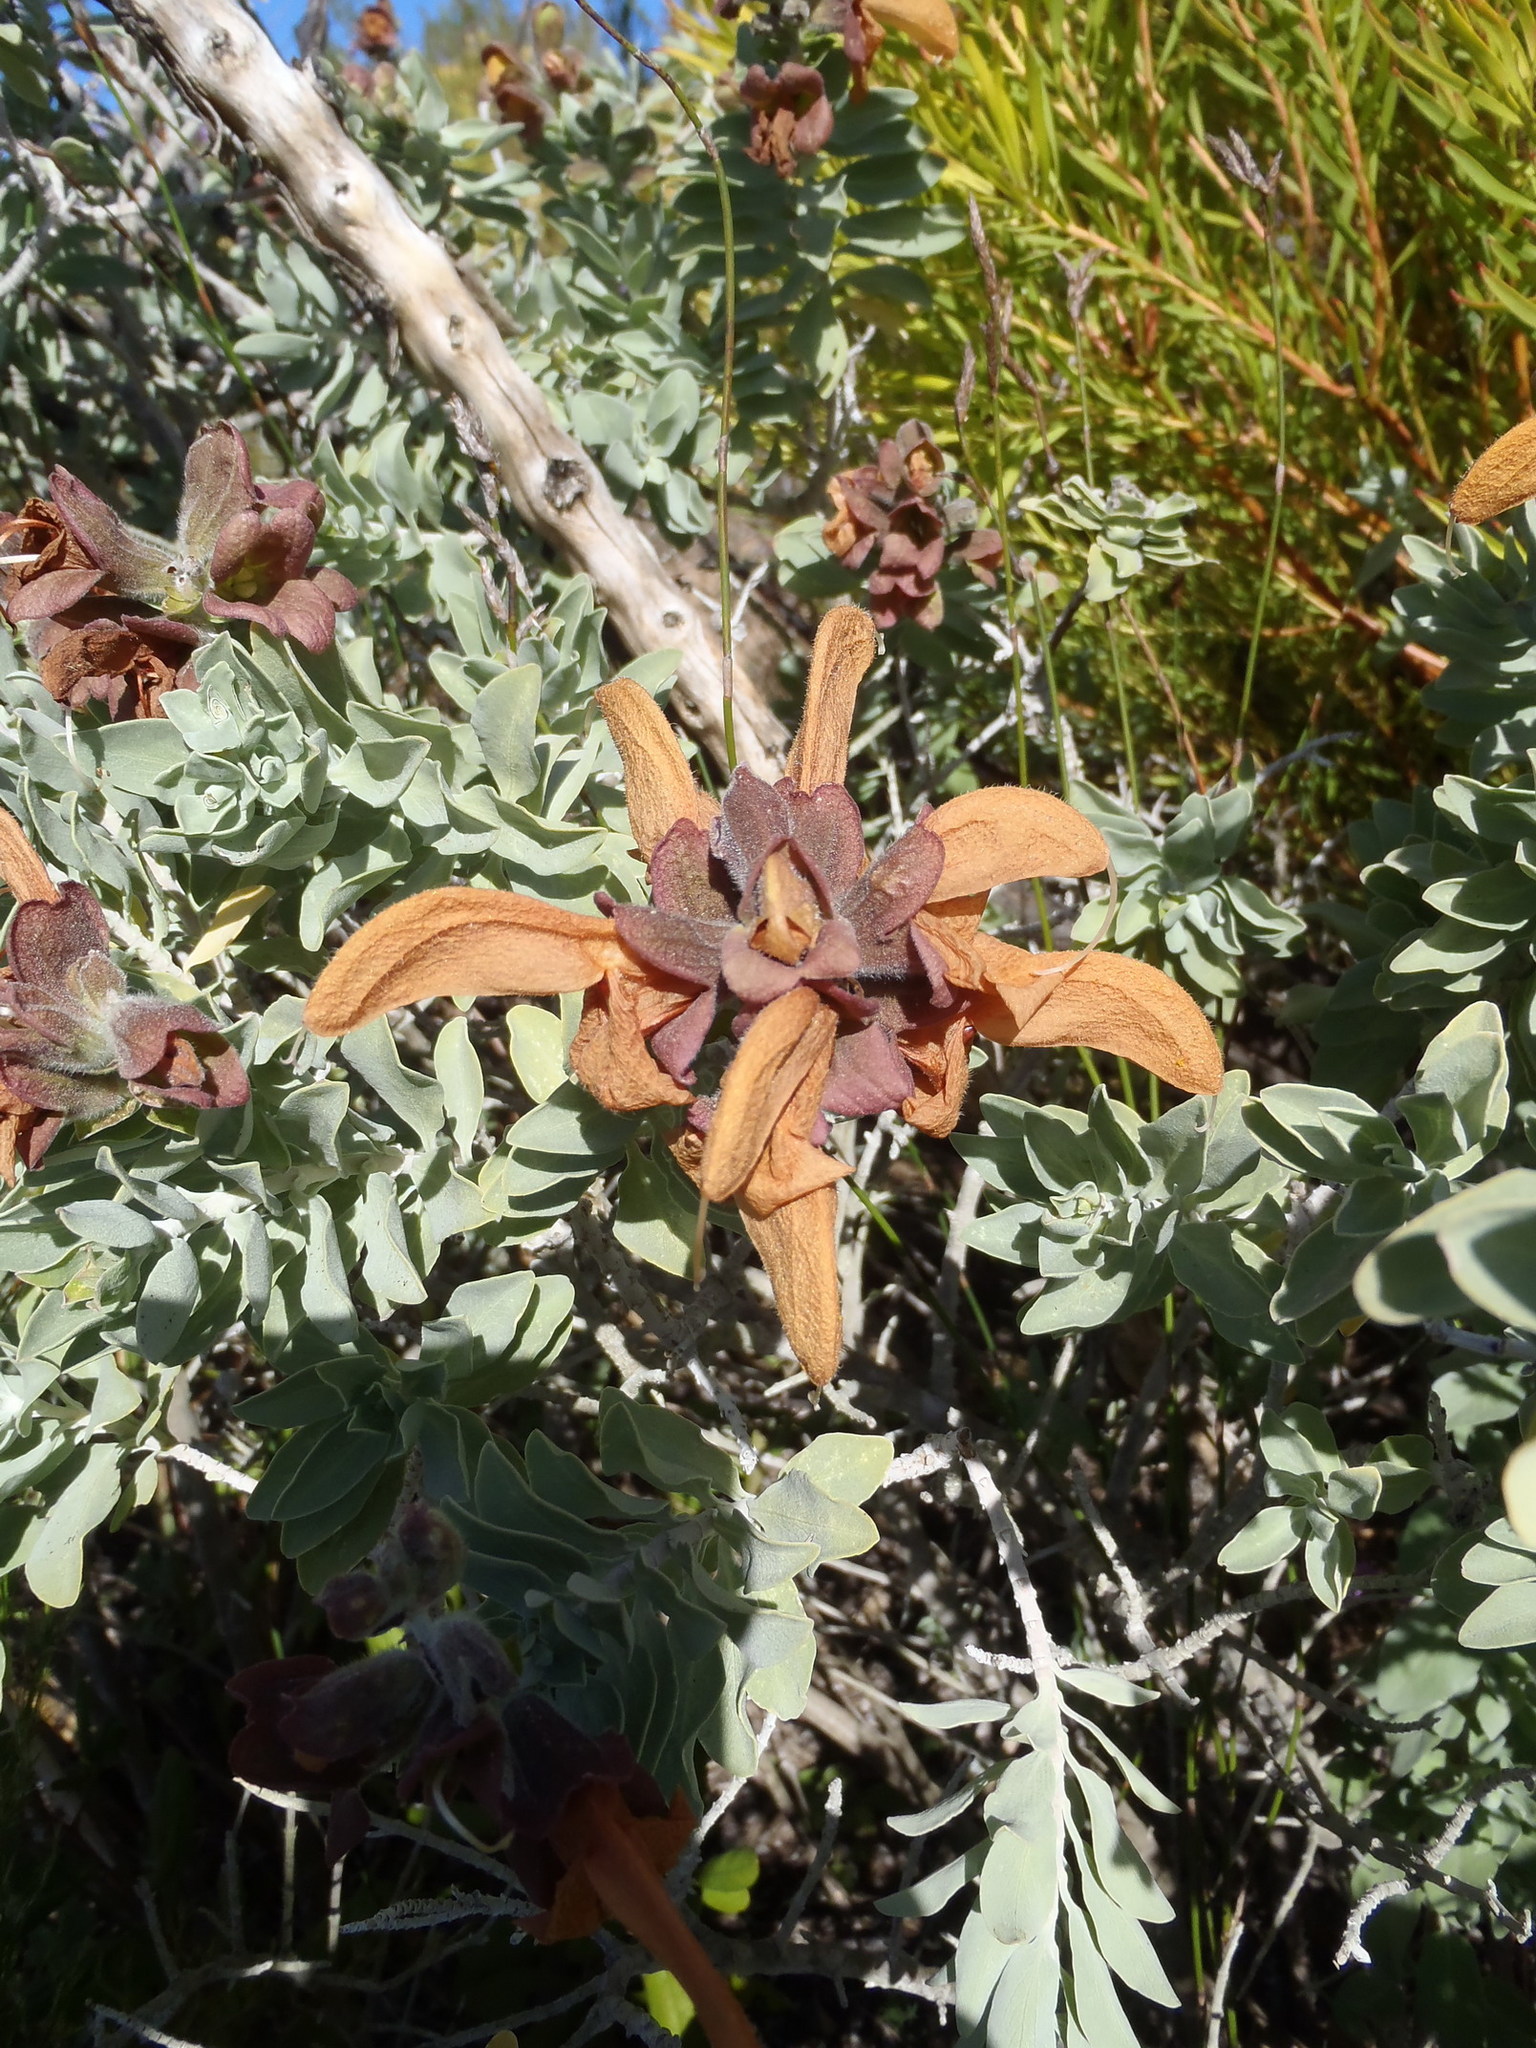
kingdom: Plantae
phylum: Tracheophyta
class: Magnoliopsida
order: Lamiales
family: Lamiaceae
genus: Salvia
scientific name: Salvia aurea
